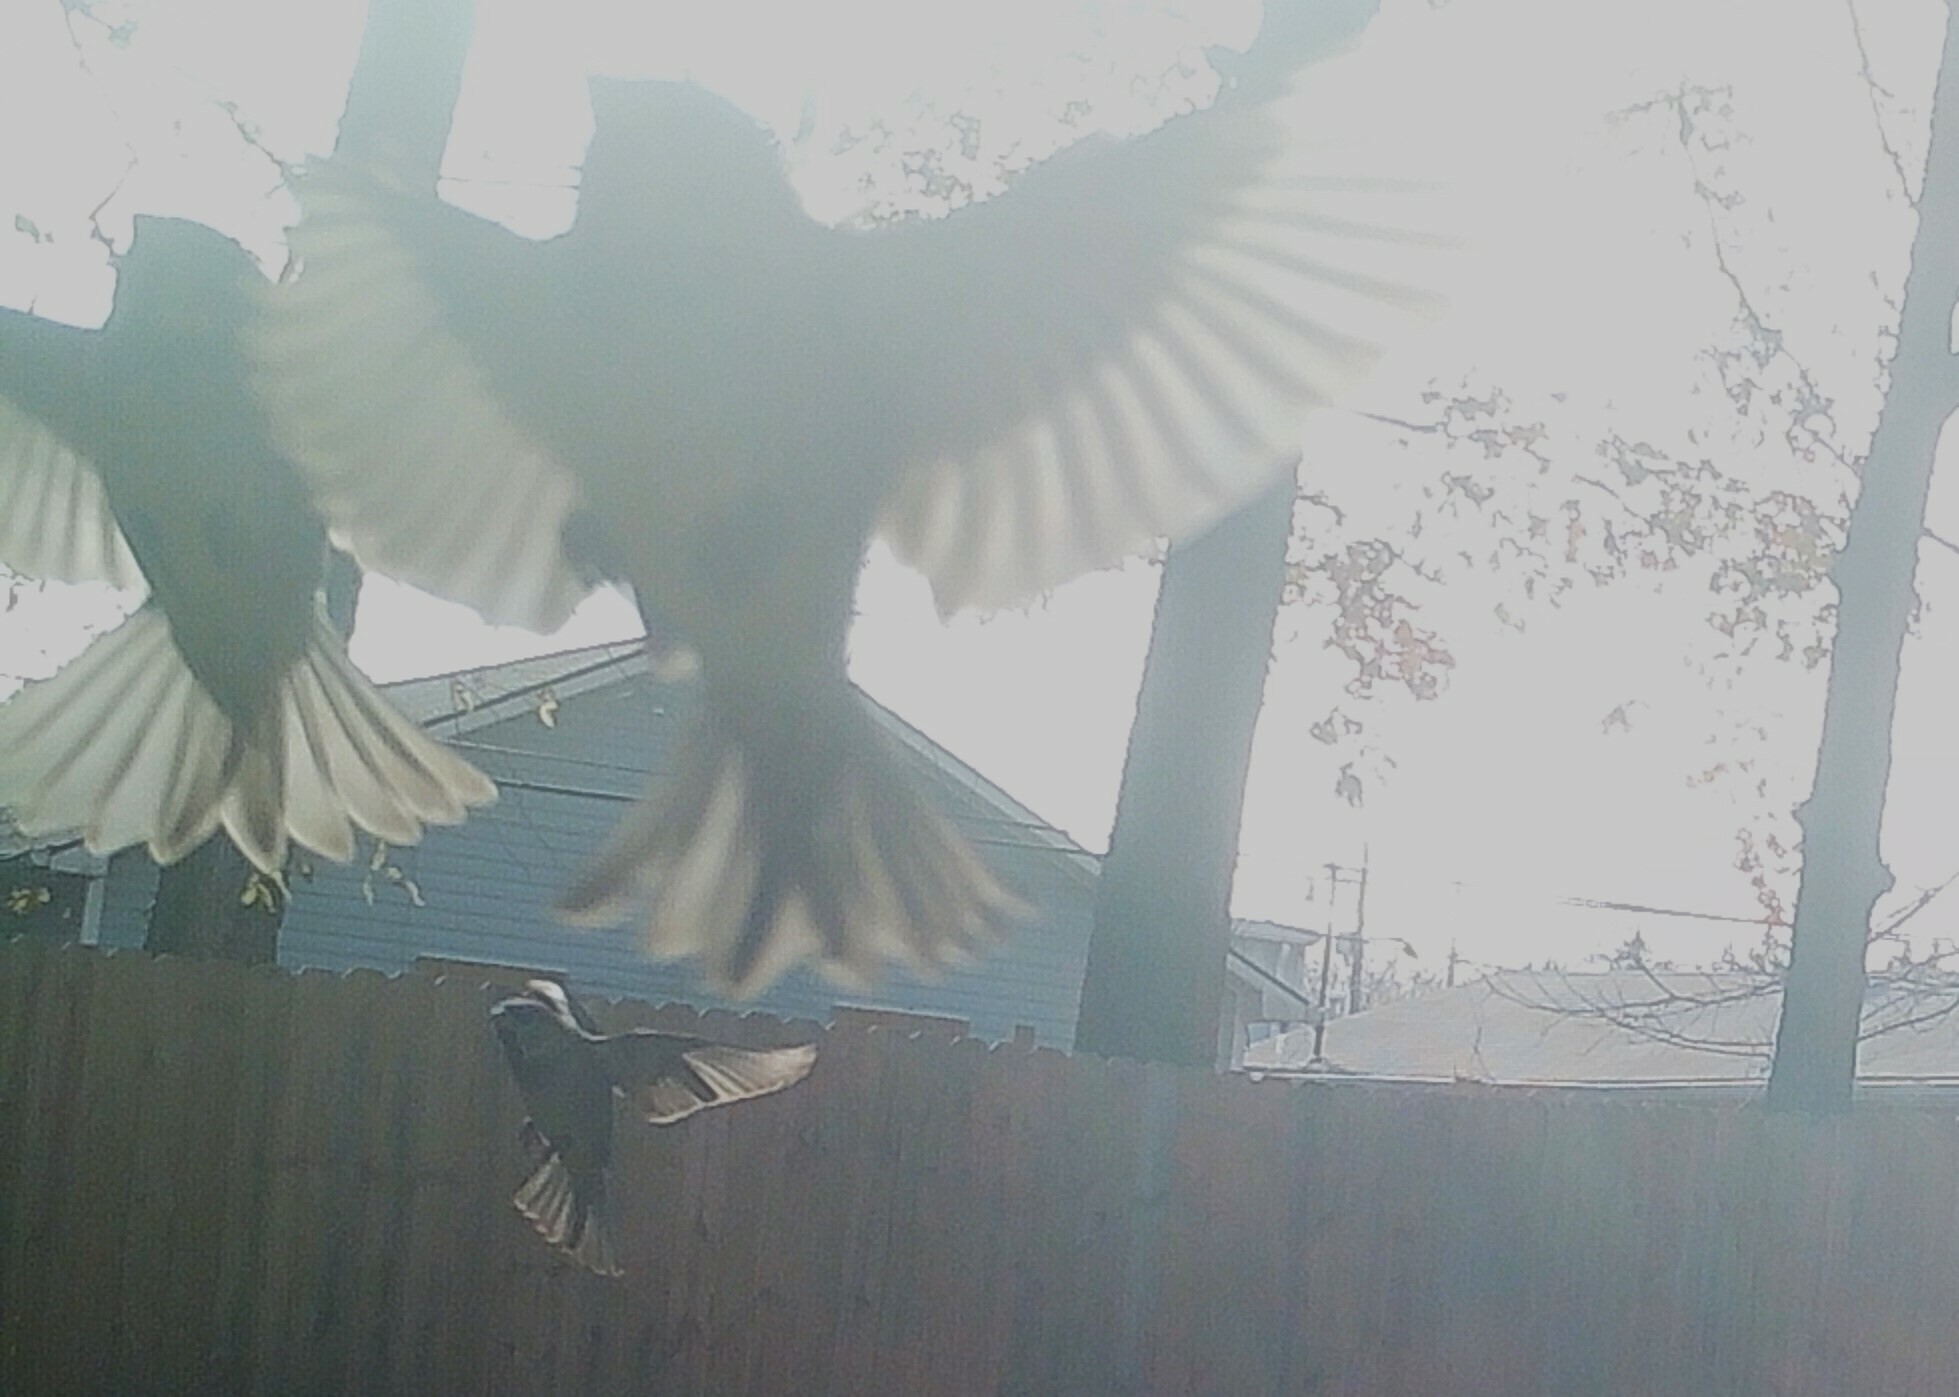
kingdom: Animalia
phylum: Chordata
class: Aves
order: Passeriformes
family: Passeridae
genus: Passer
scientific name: Passer domesticus
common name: House sparrow
